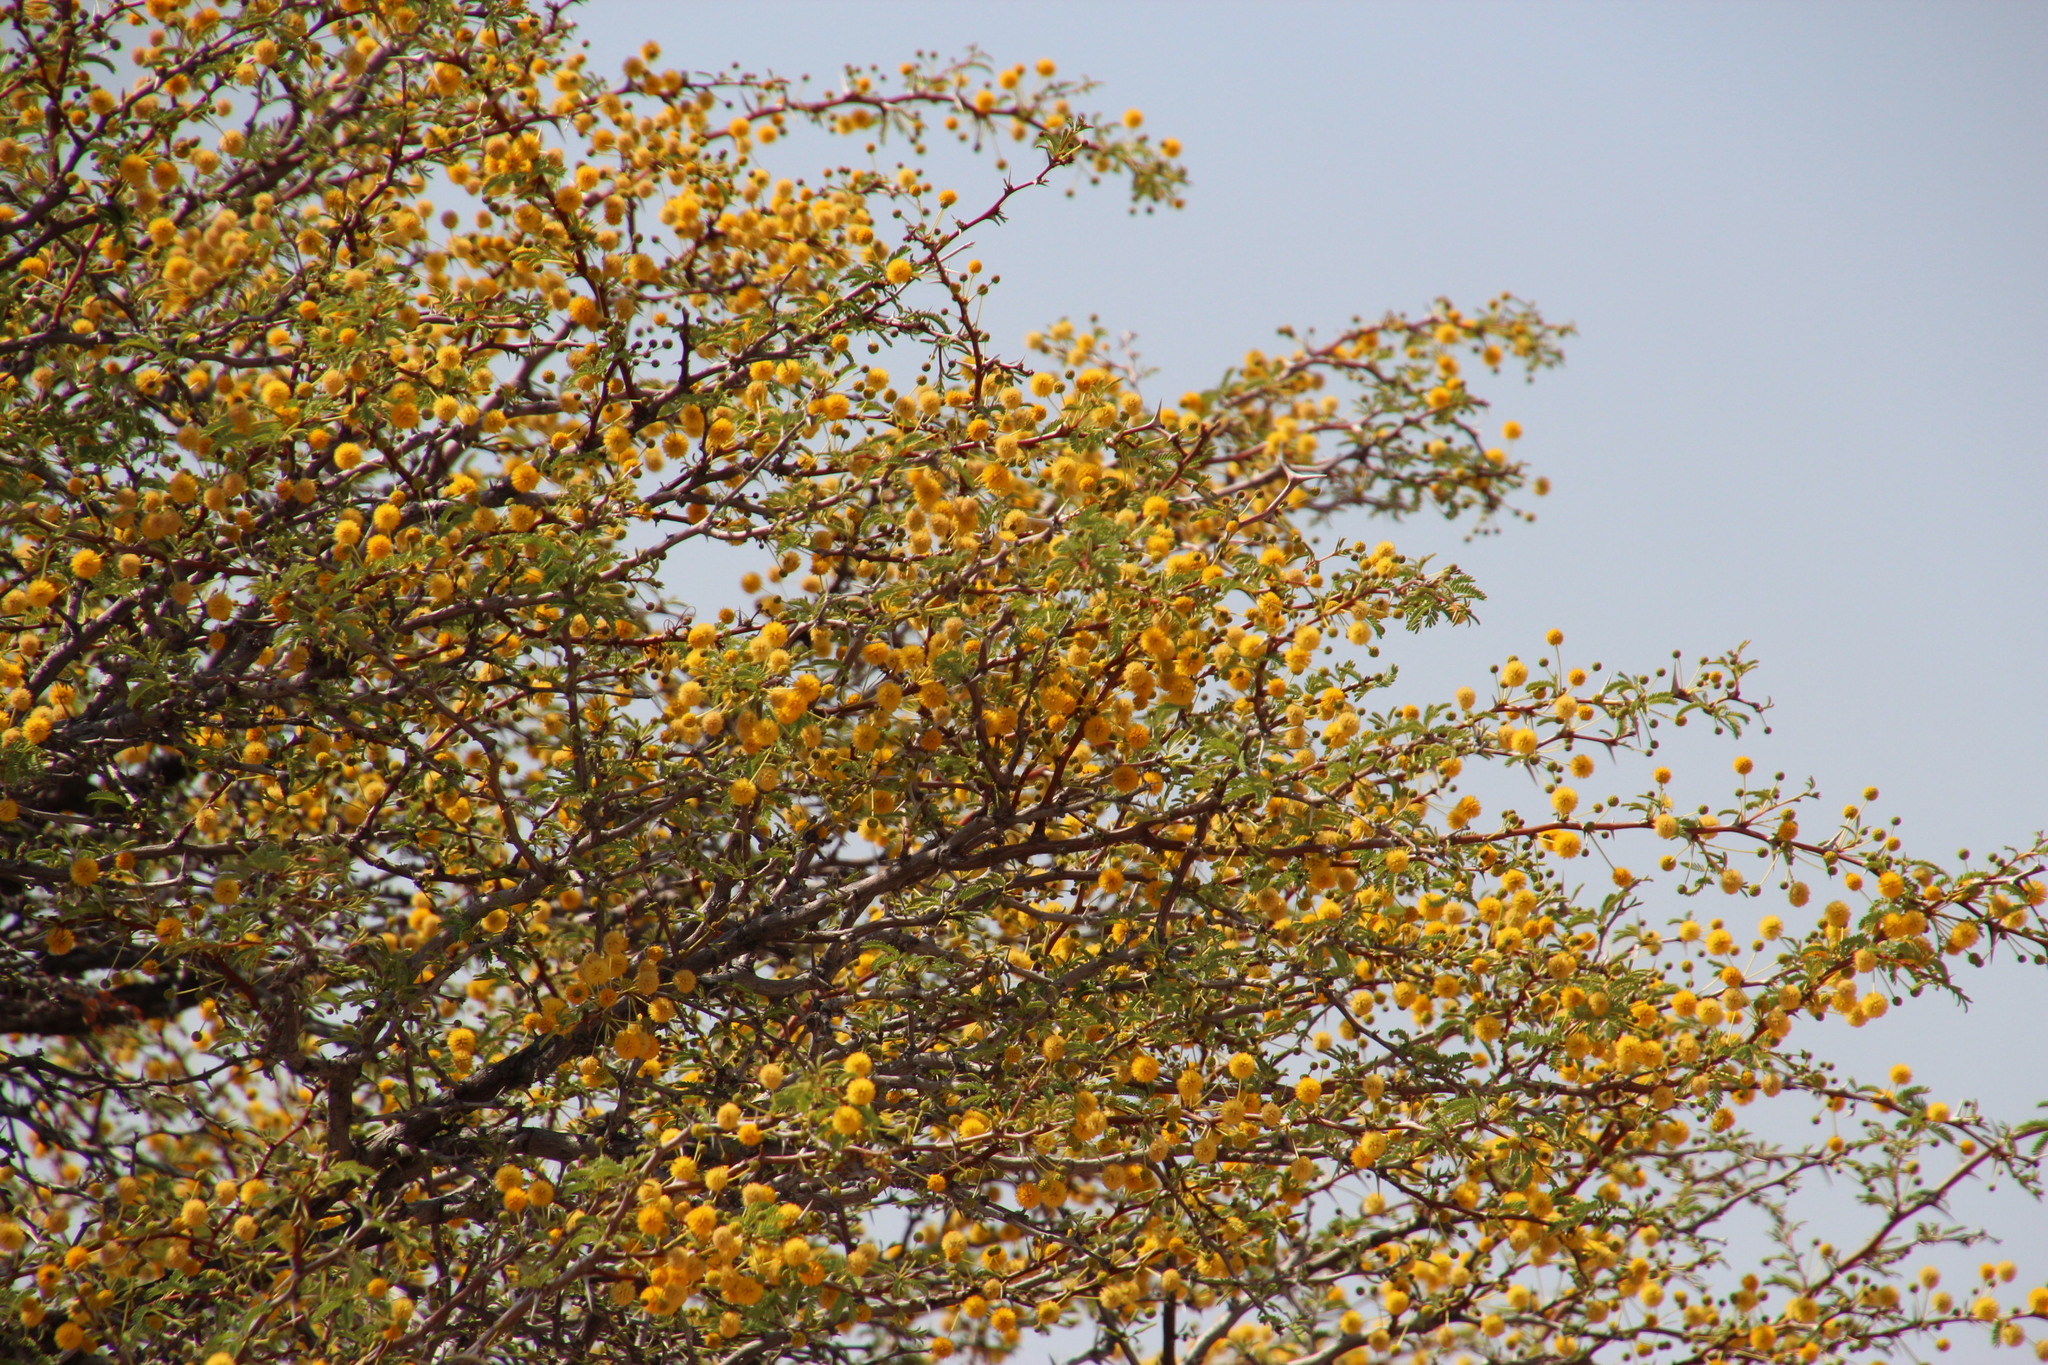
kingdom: Plantae
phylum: Tracheophyta
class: Magnoliopsida
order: Fabales
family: Fabaceae
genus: Vachellia
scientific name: Vachellia karroo
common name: Sweet thorn
